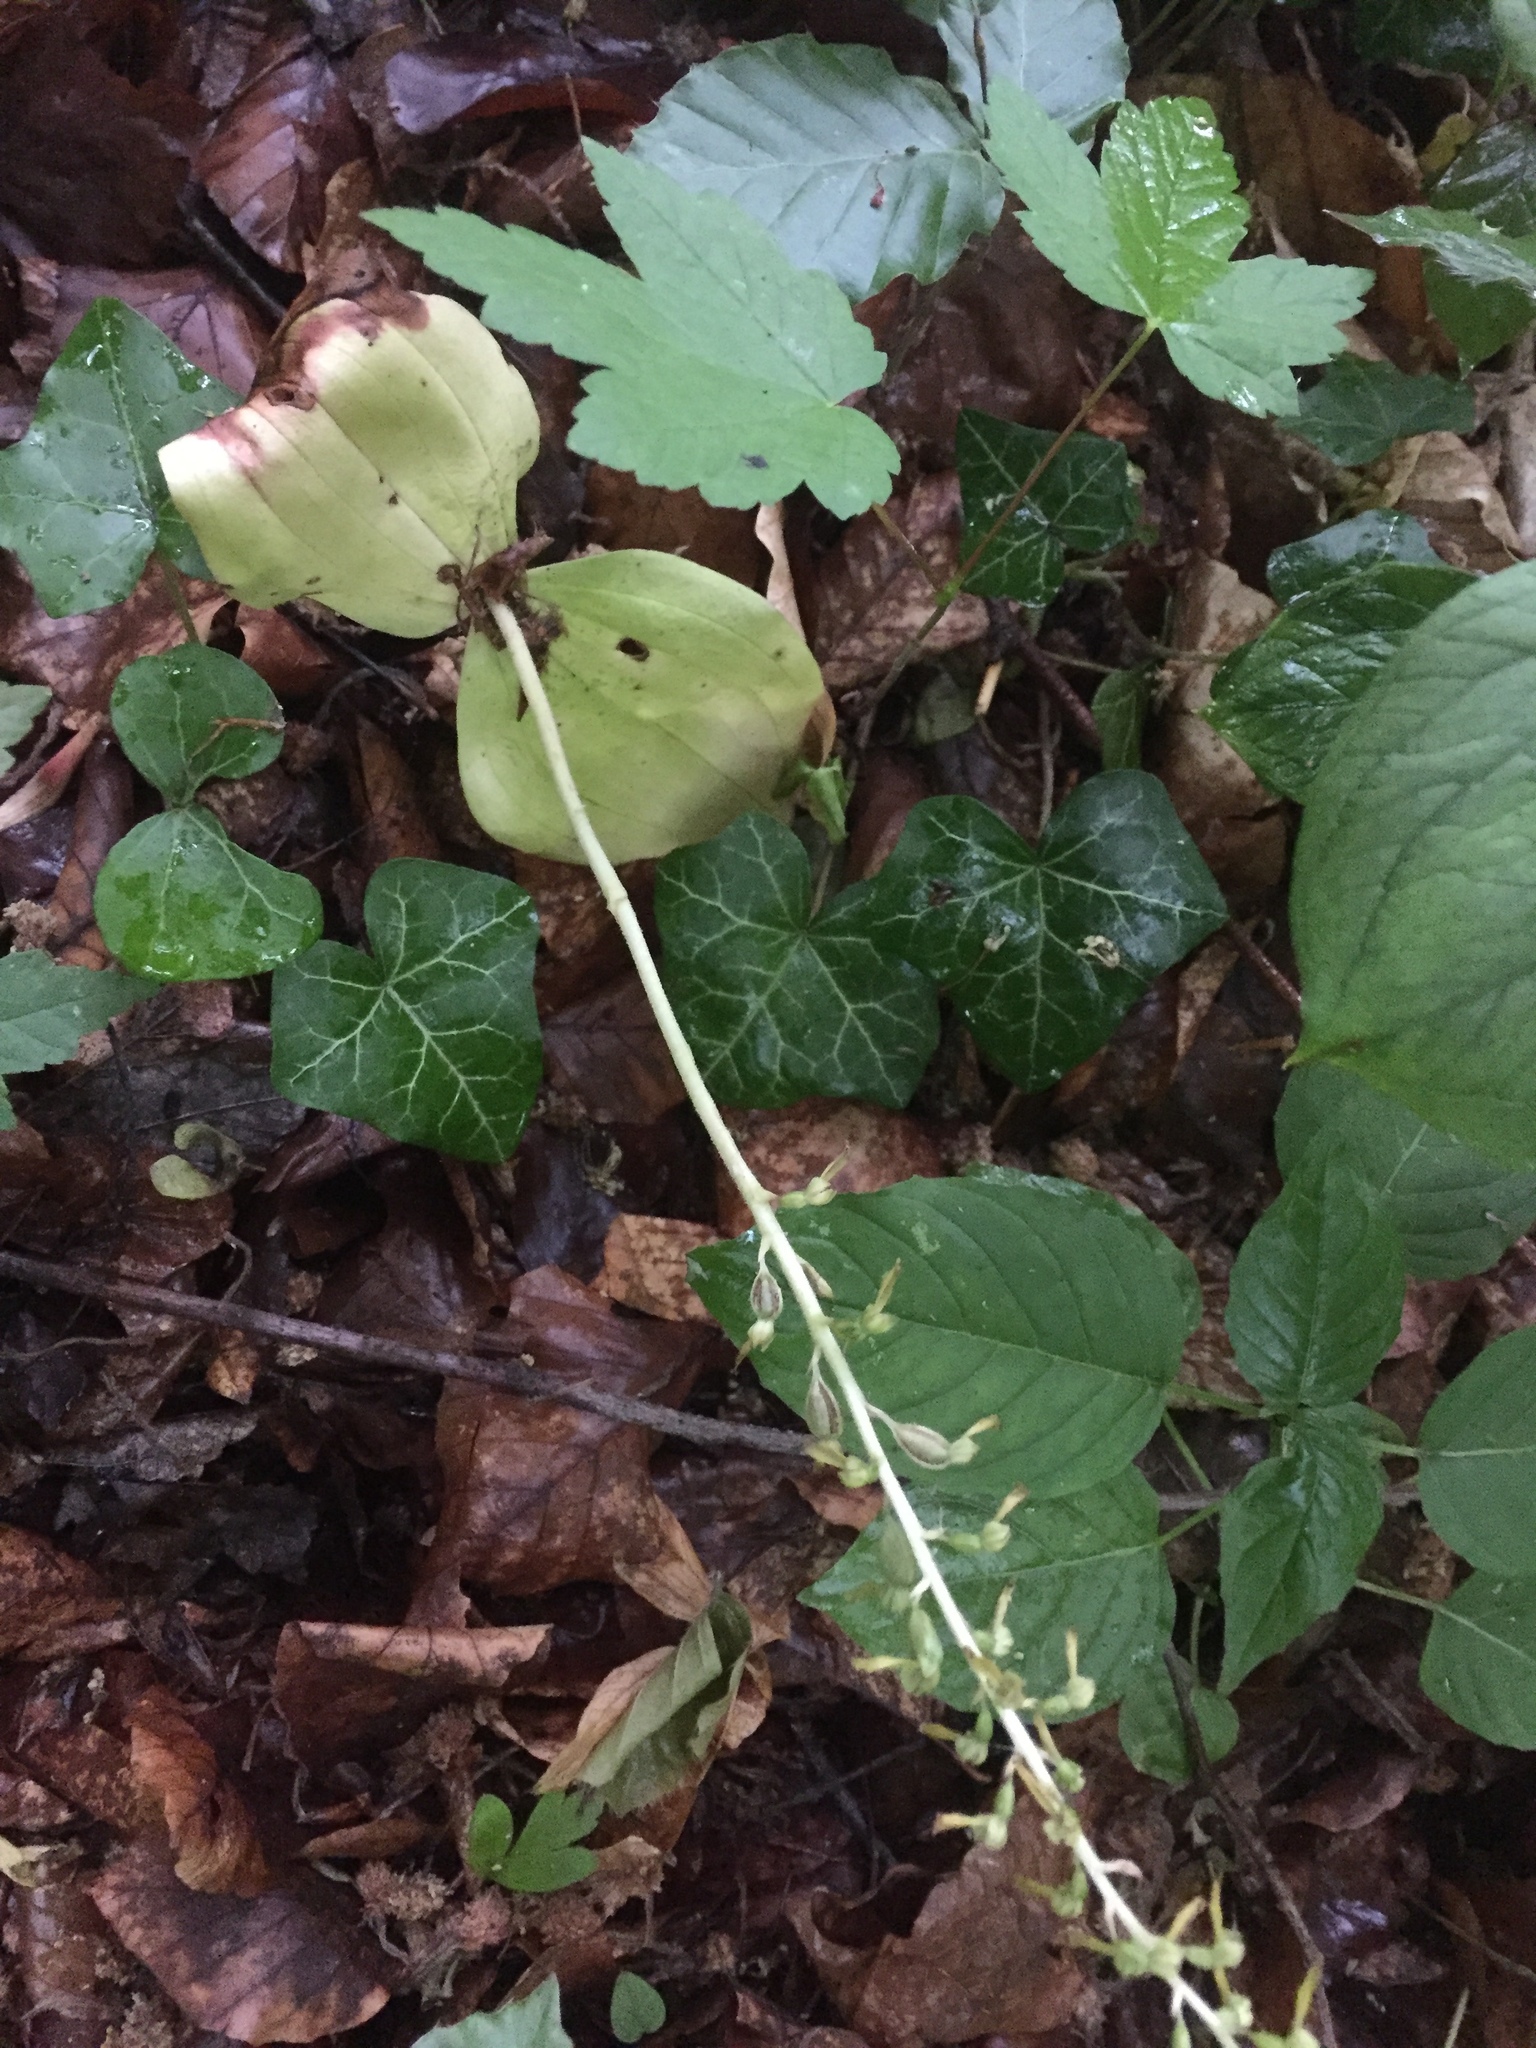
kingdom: Plantae
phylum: Tracheophyta
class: Liliopsida
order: Asparagales
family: Orchidaceae
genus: Neottia
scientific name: Neottia ovata
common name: Common twayblade
